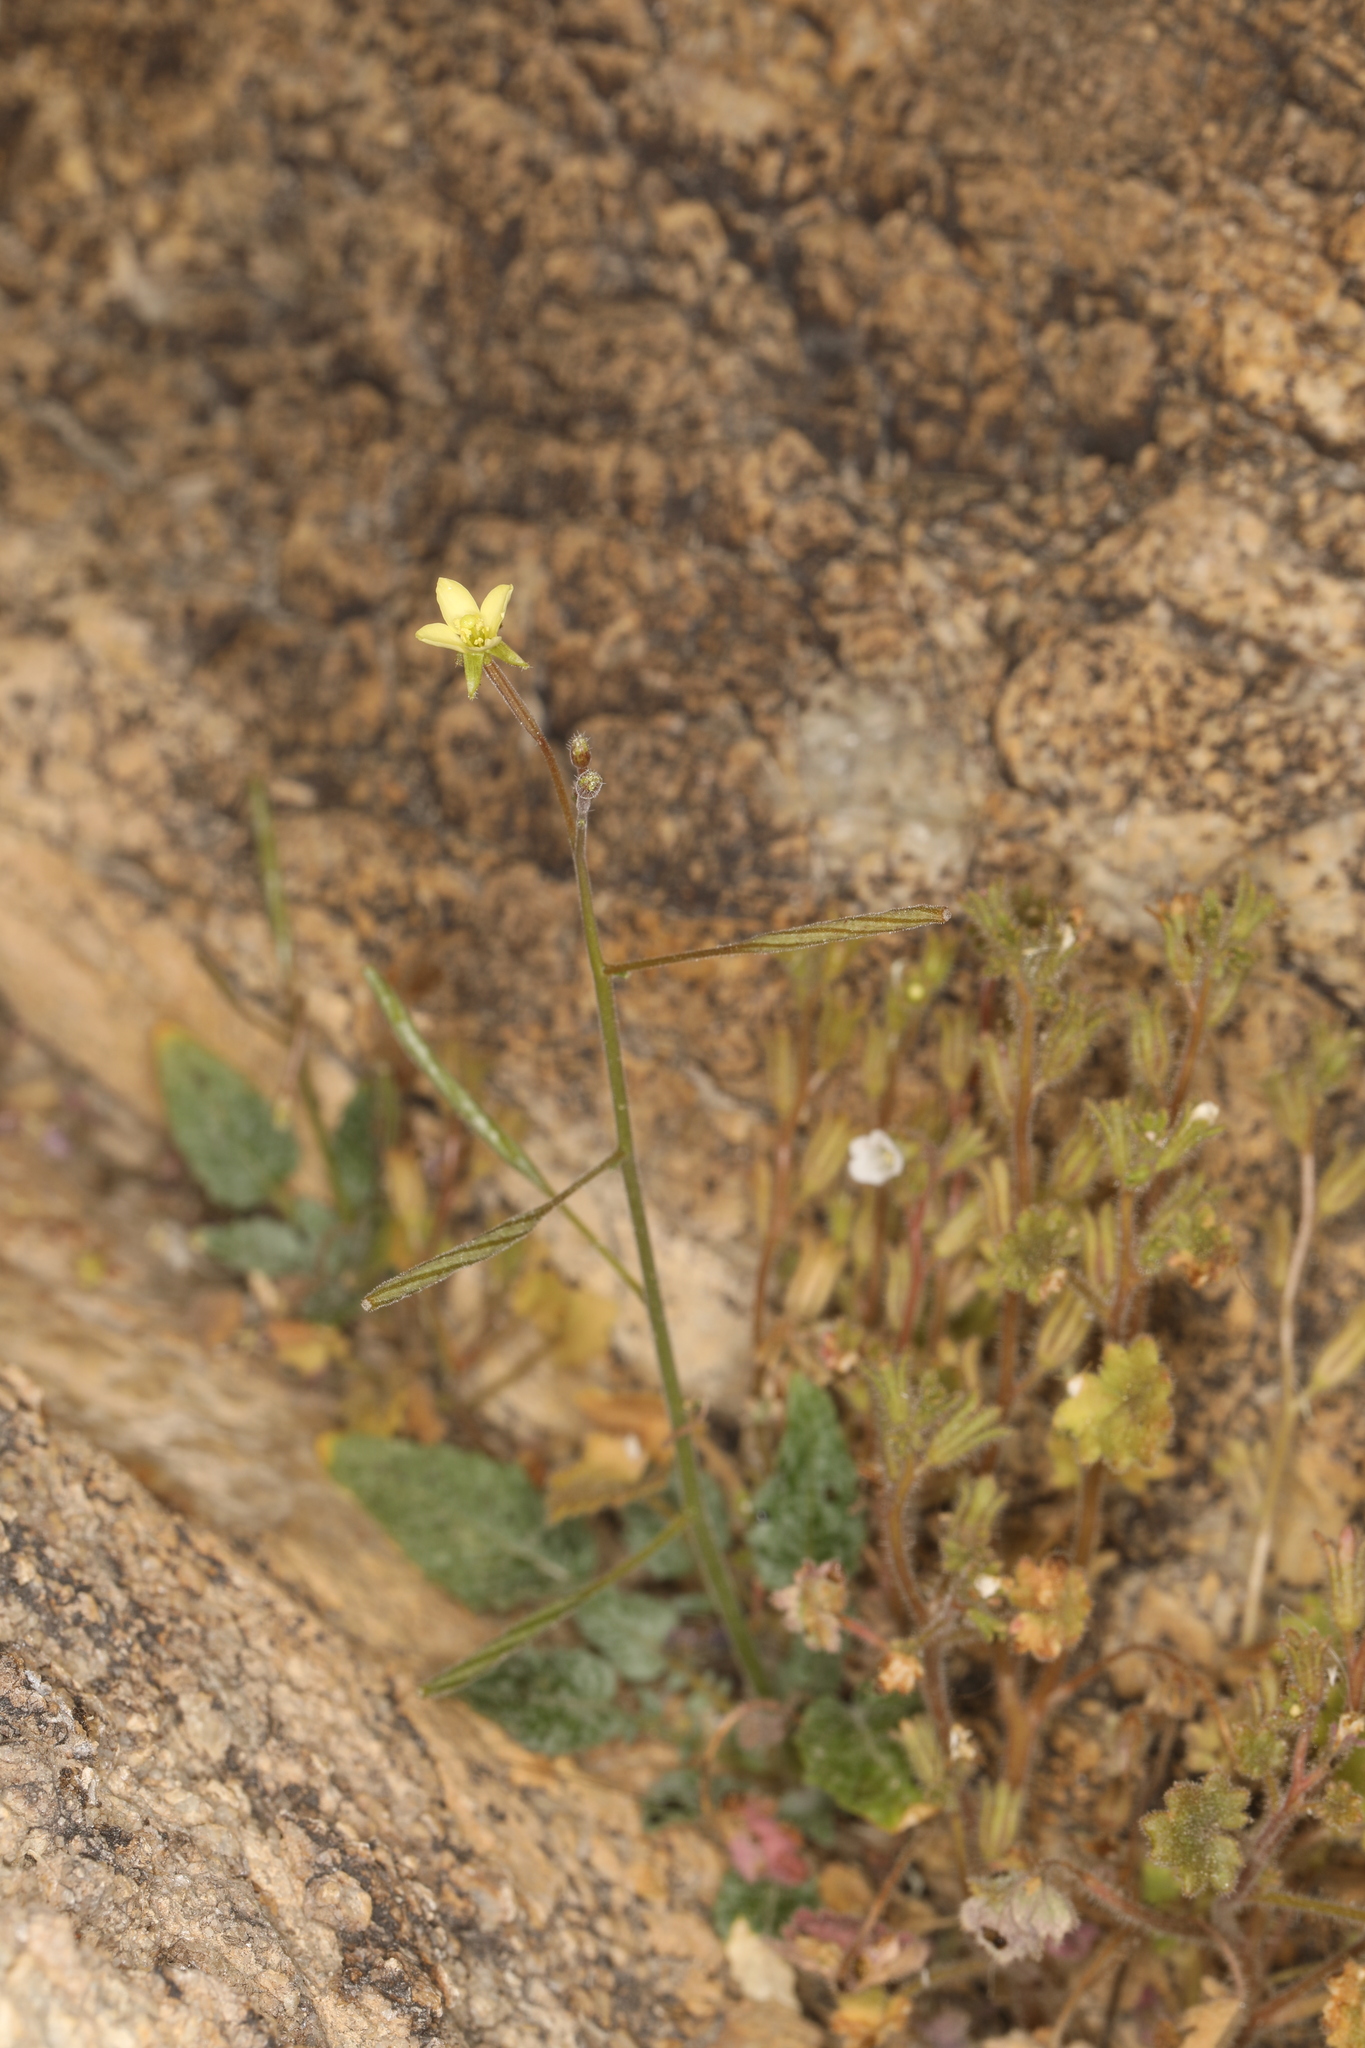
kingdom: Plantae
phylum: Tracheophyta
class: Magnoliopsida
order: Myrtales
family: Onagraceae
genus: Chylismia
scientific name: Chylismia walkeri
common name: Walker's suncup
